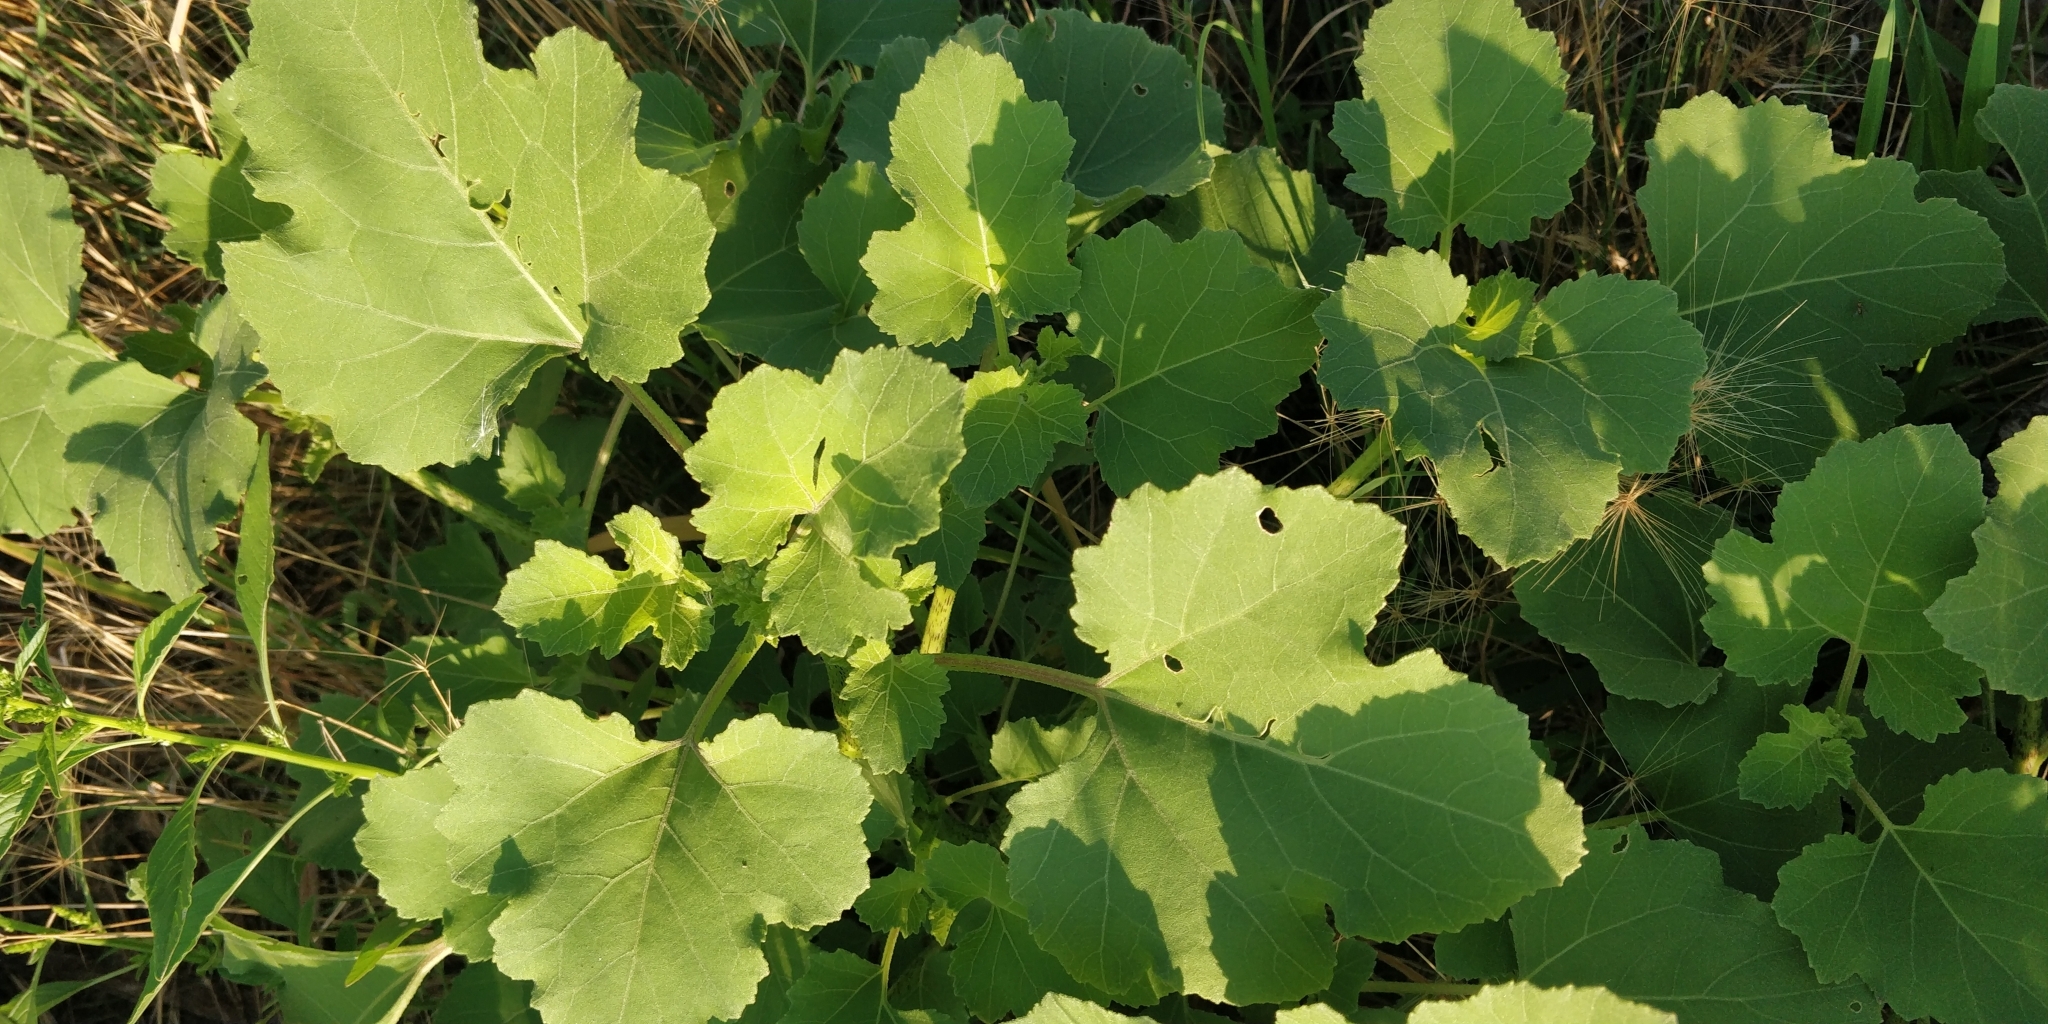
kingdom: Plantae
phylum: Tracheophyta
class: Magnoliopsida
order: Asterales
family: Asteraceae
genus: Xanthium
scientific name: Xanthium strumarium
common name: Rough cocklebur
